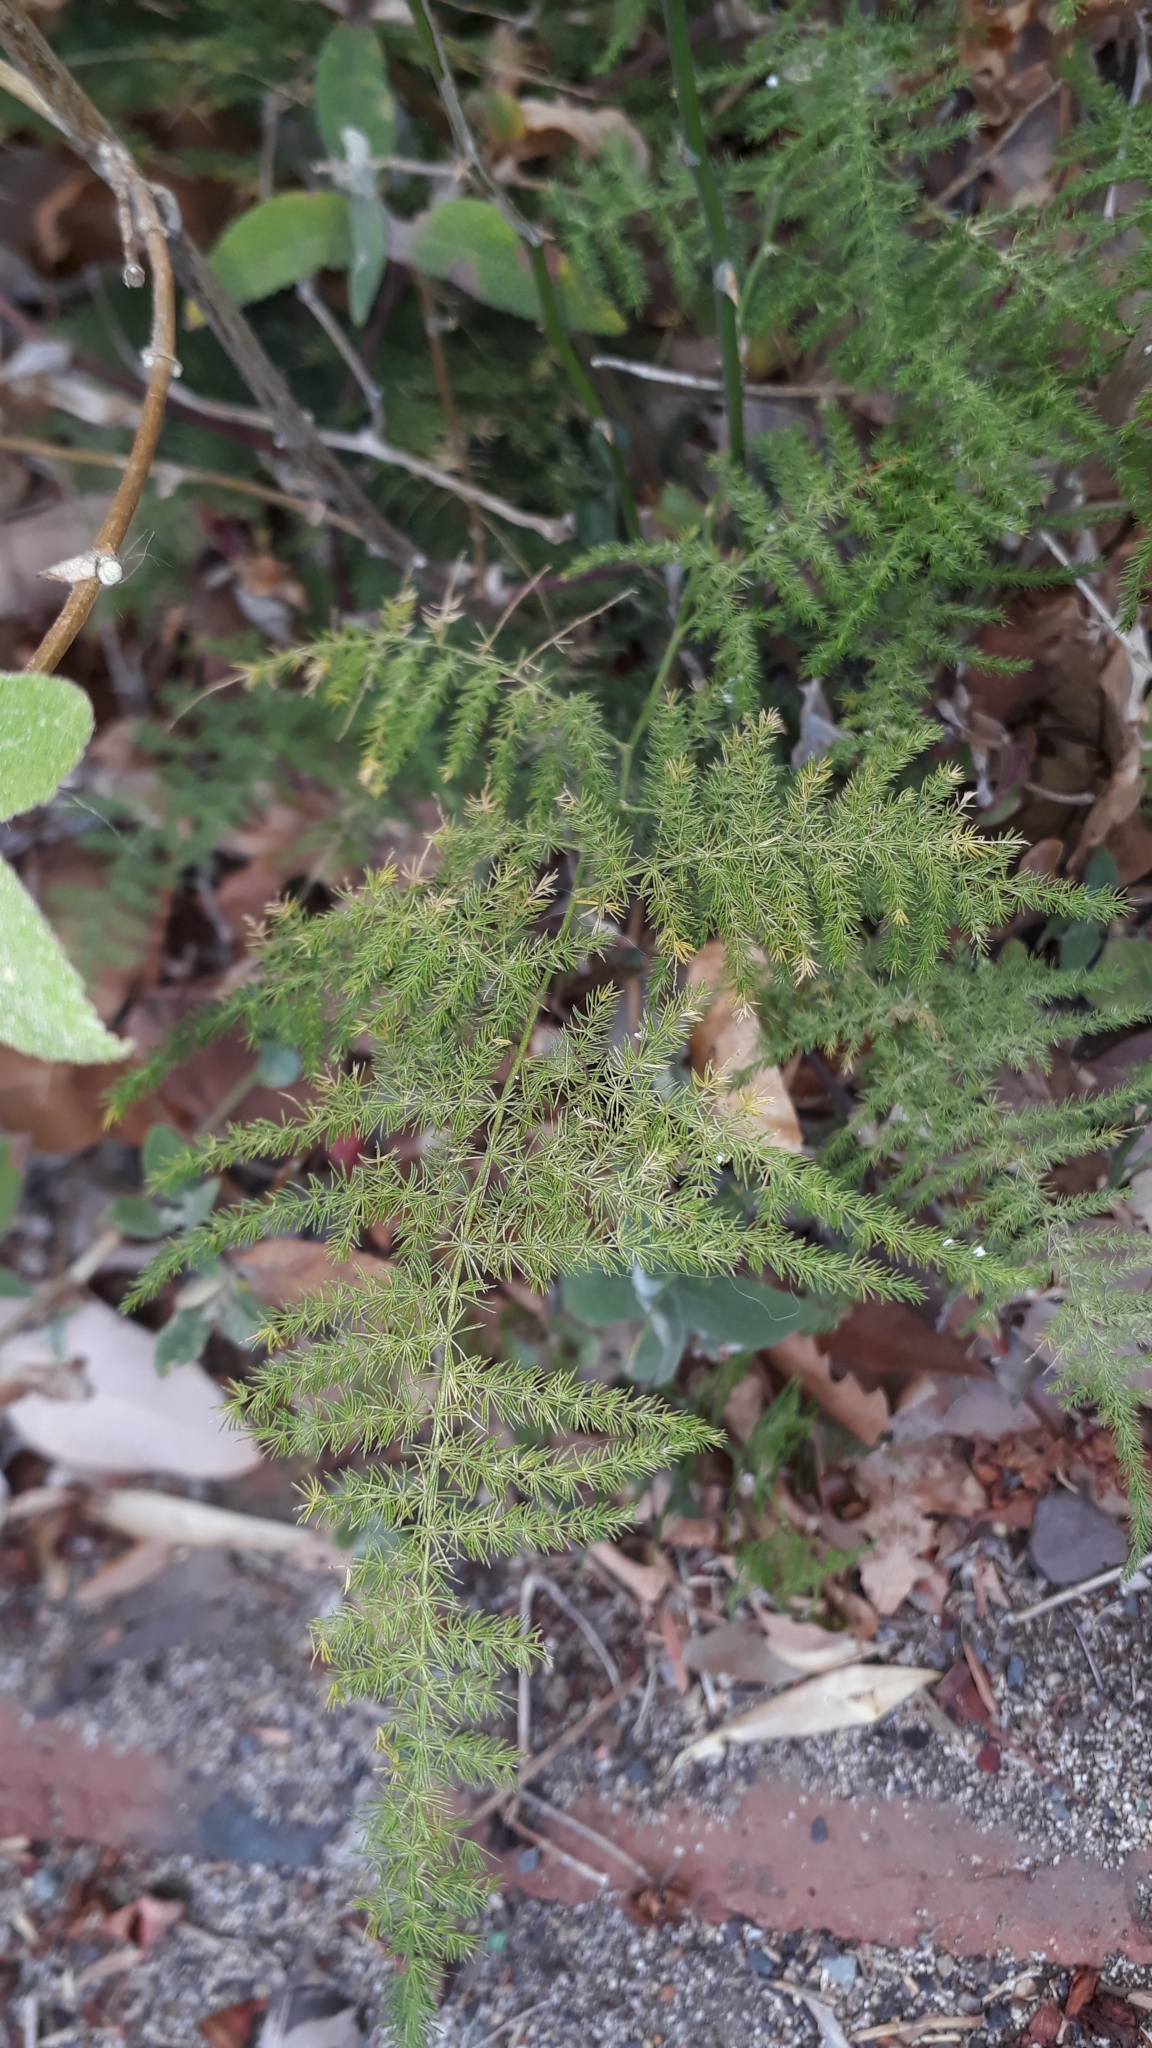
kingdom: Plantae
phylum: Tracheophyta
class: Liliopsida
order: Asparagales
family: Asparagaceae
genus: Asparagus
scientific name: Asparagus setaceus
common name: Common asparagus fern
